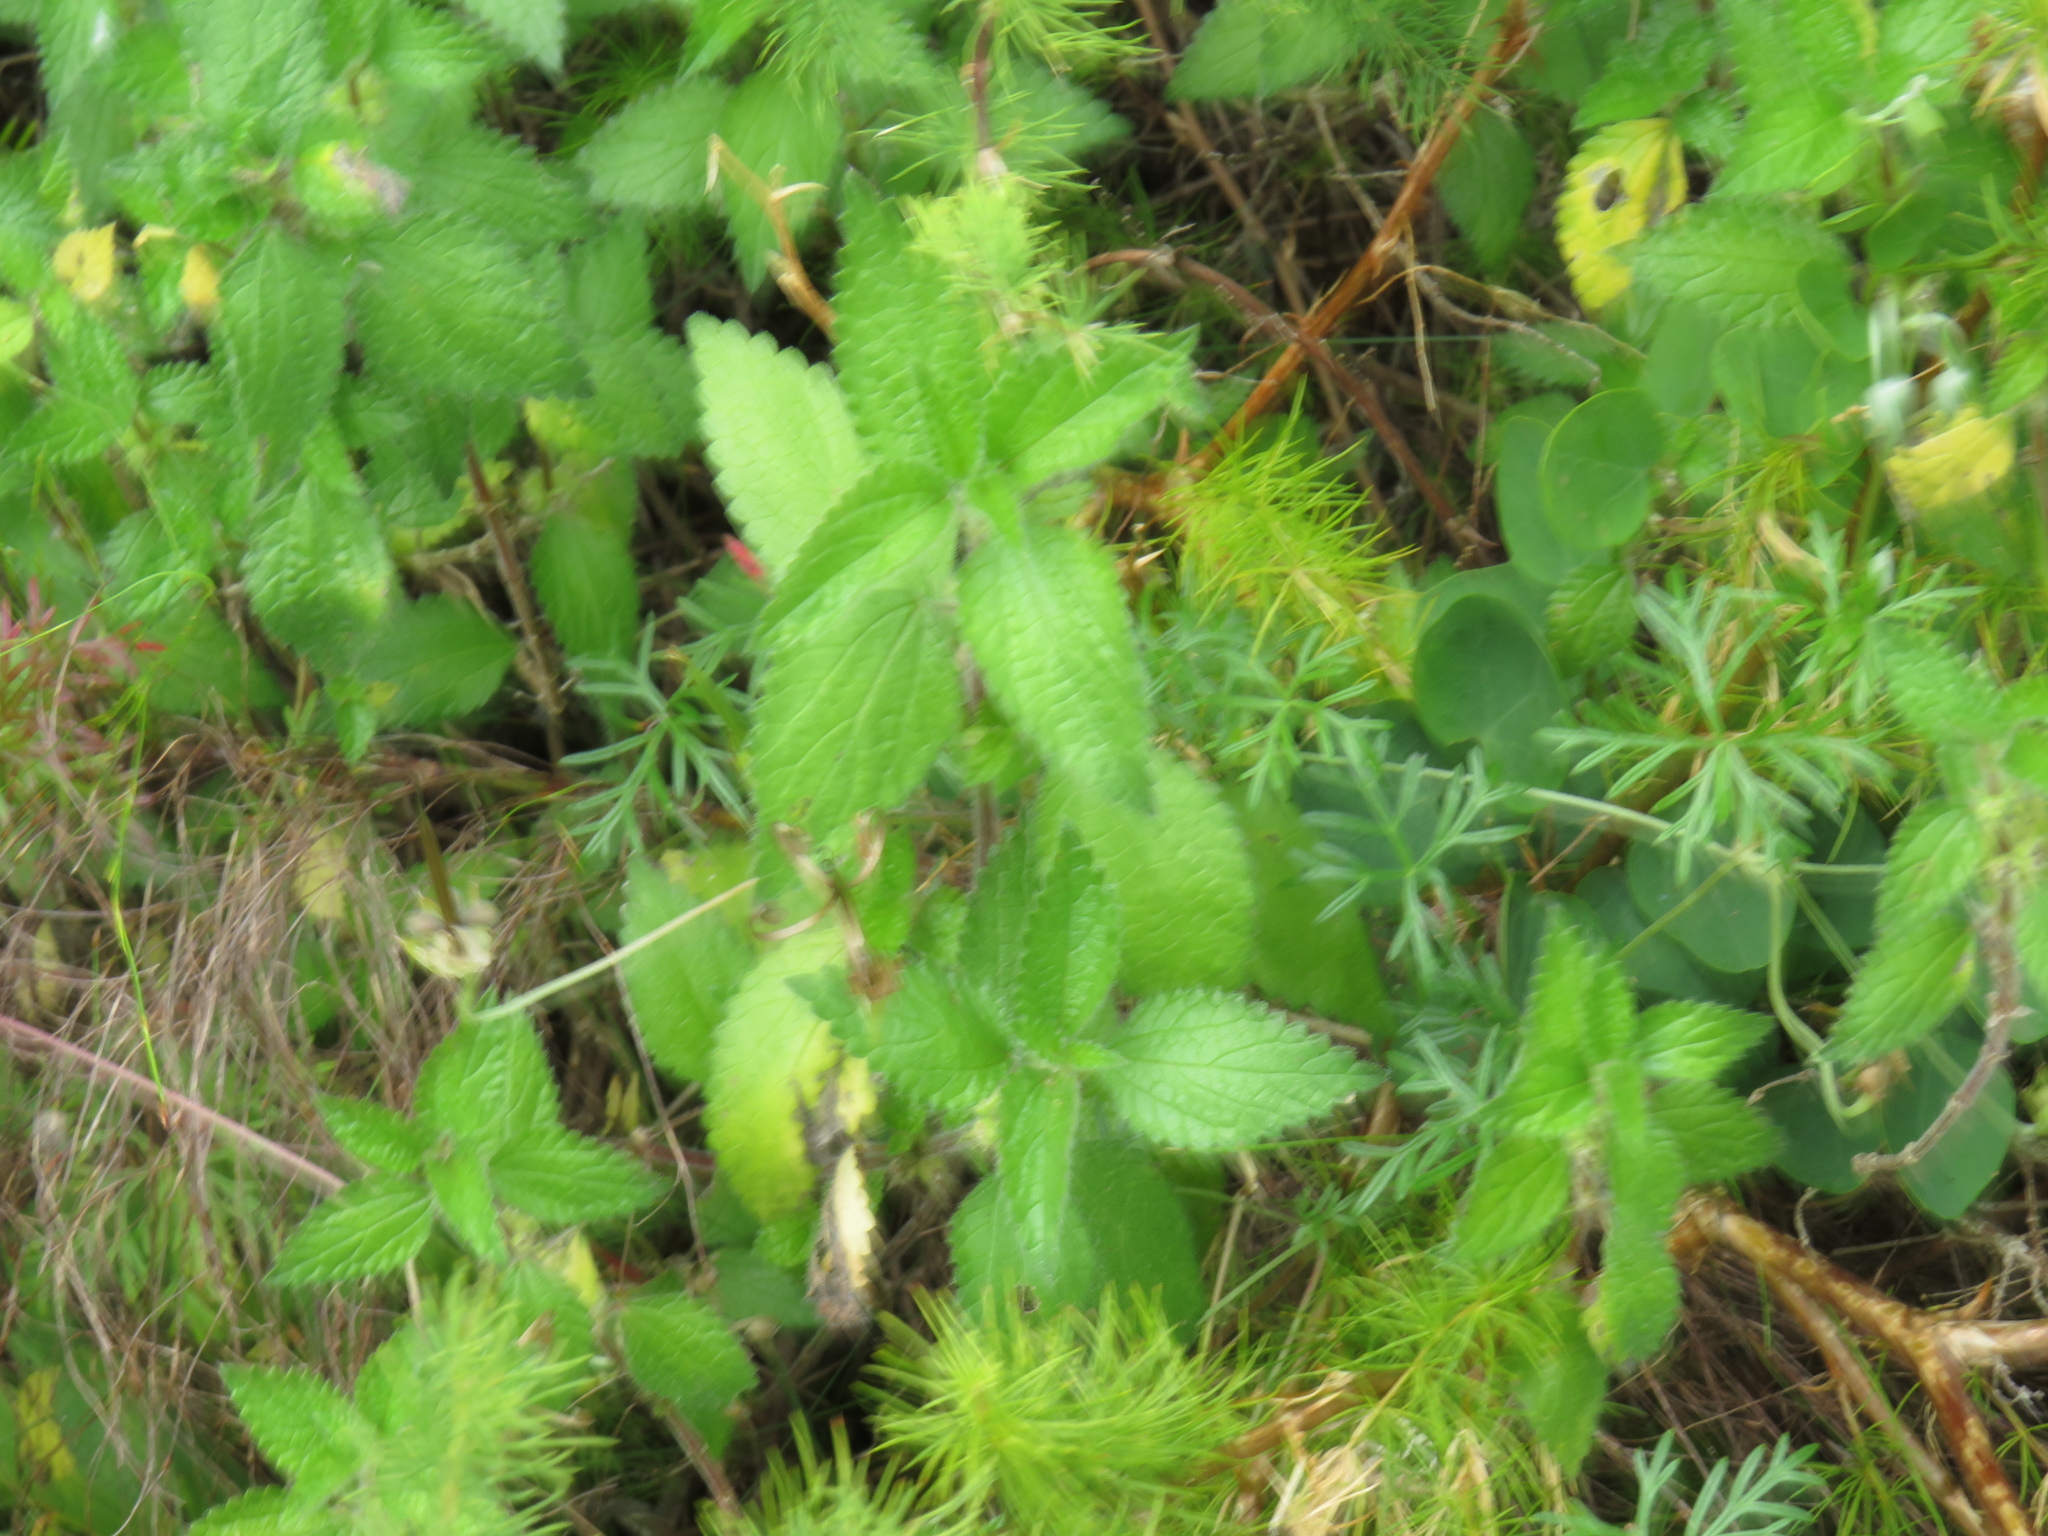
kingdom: Plantae
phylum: Tracheophyta
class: Magnoliopsida
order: Rosales
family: Urticaceae
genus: Droguetia
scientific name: Droguetia iners
